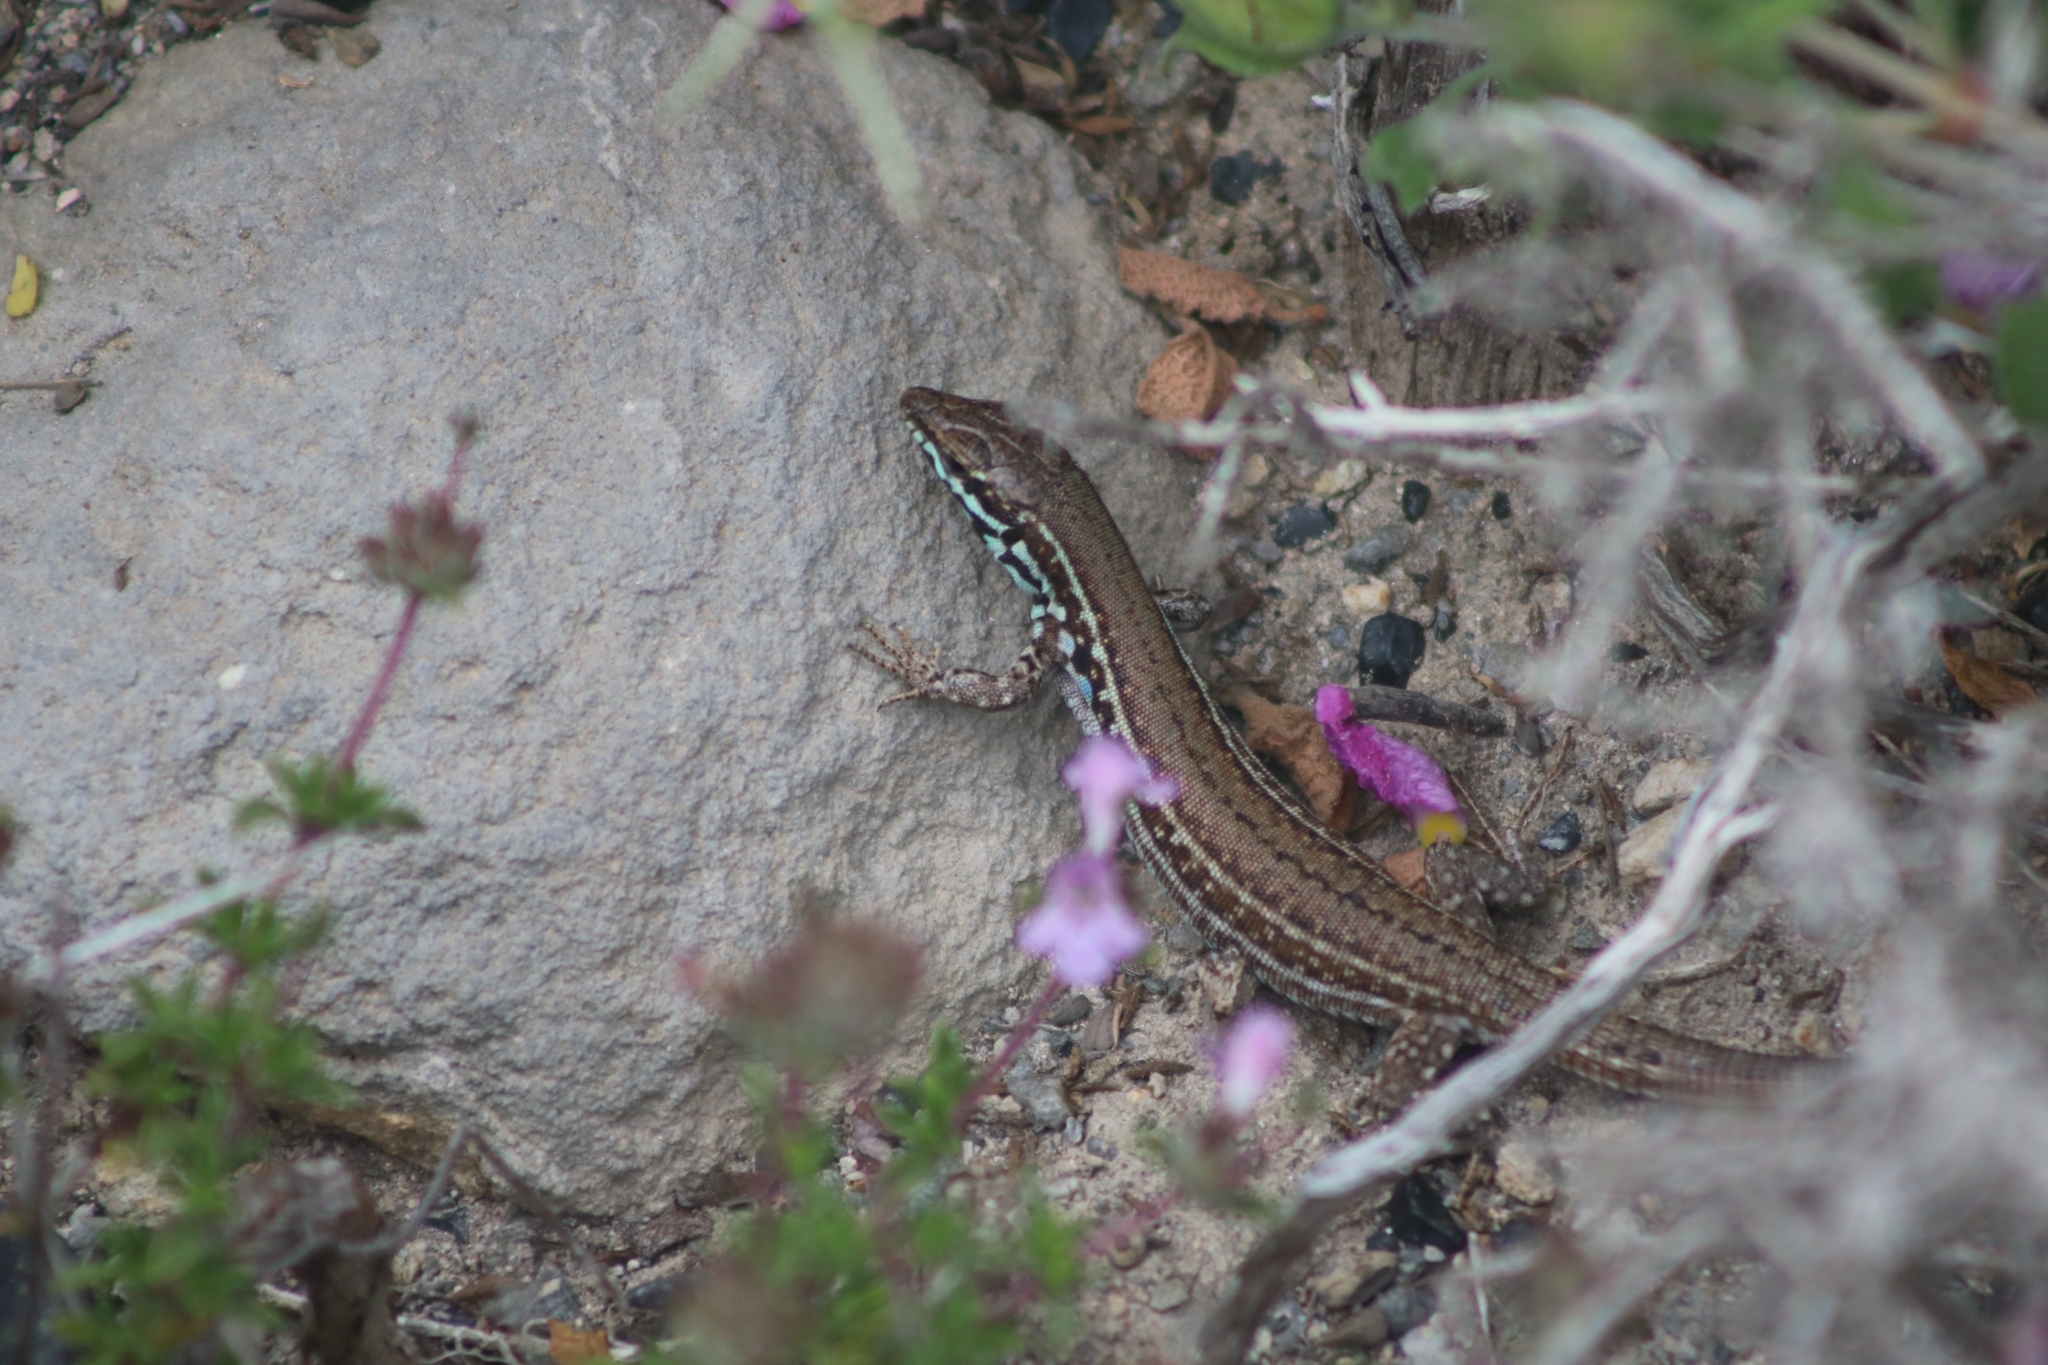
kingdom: Animalia
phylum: Chordata
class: Squamata
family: Lacertidae
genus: Podarcis
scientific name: Podarcis milensis
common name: Milos wall lizard
